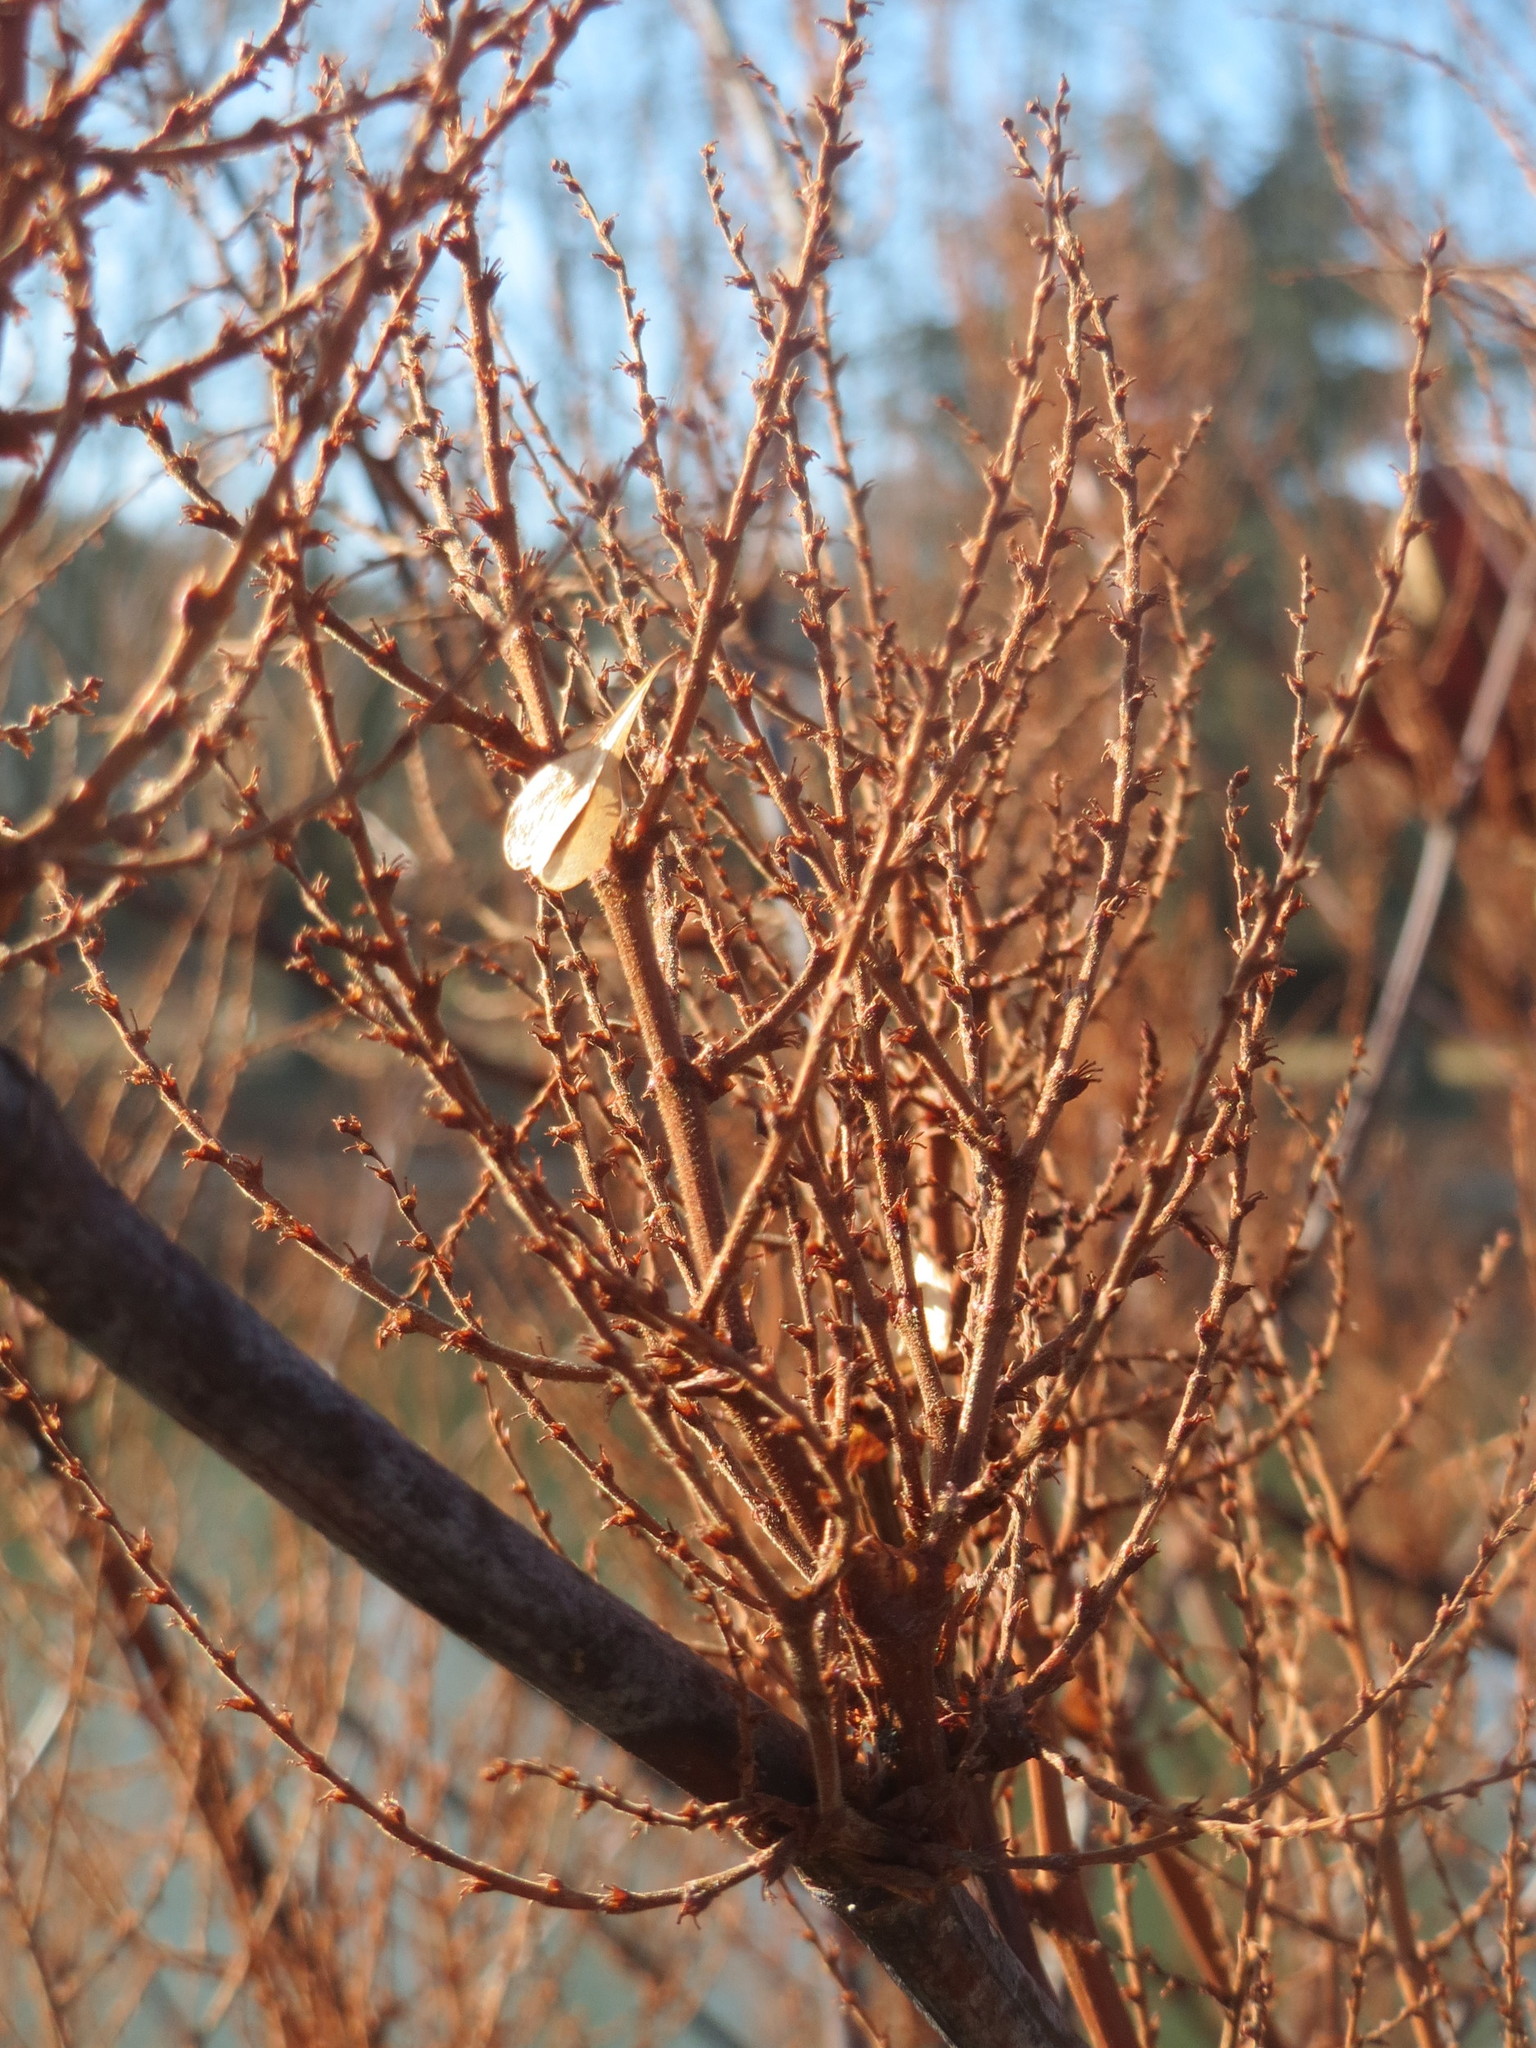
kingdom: Plantae
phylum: Tracheophyta
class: Magnoliopsida
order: Caryophyllales
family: Polygonaceae
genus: Reynoutria
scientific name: Reynoutria japonica
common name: Japanese knotweed
